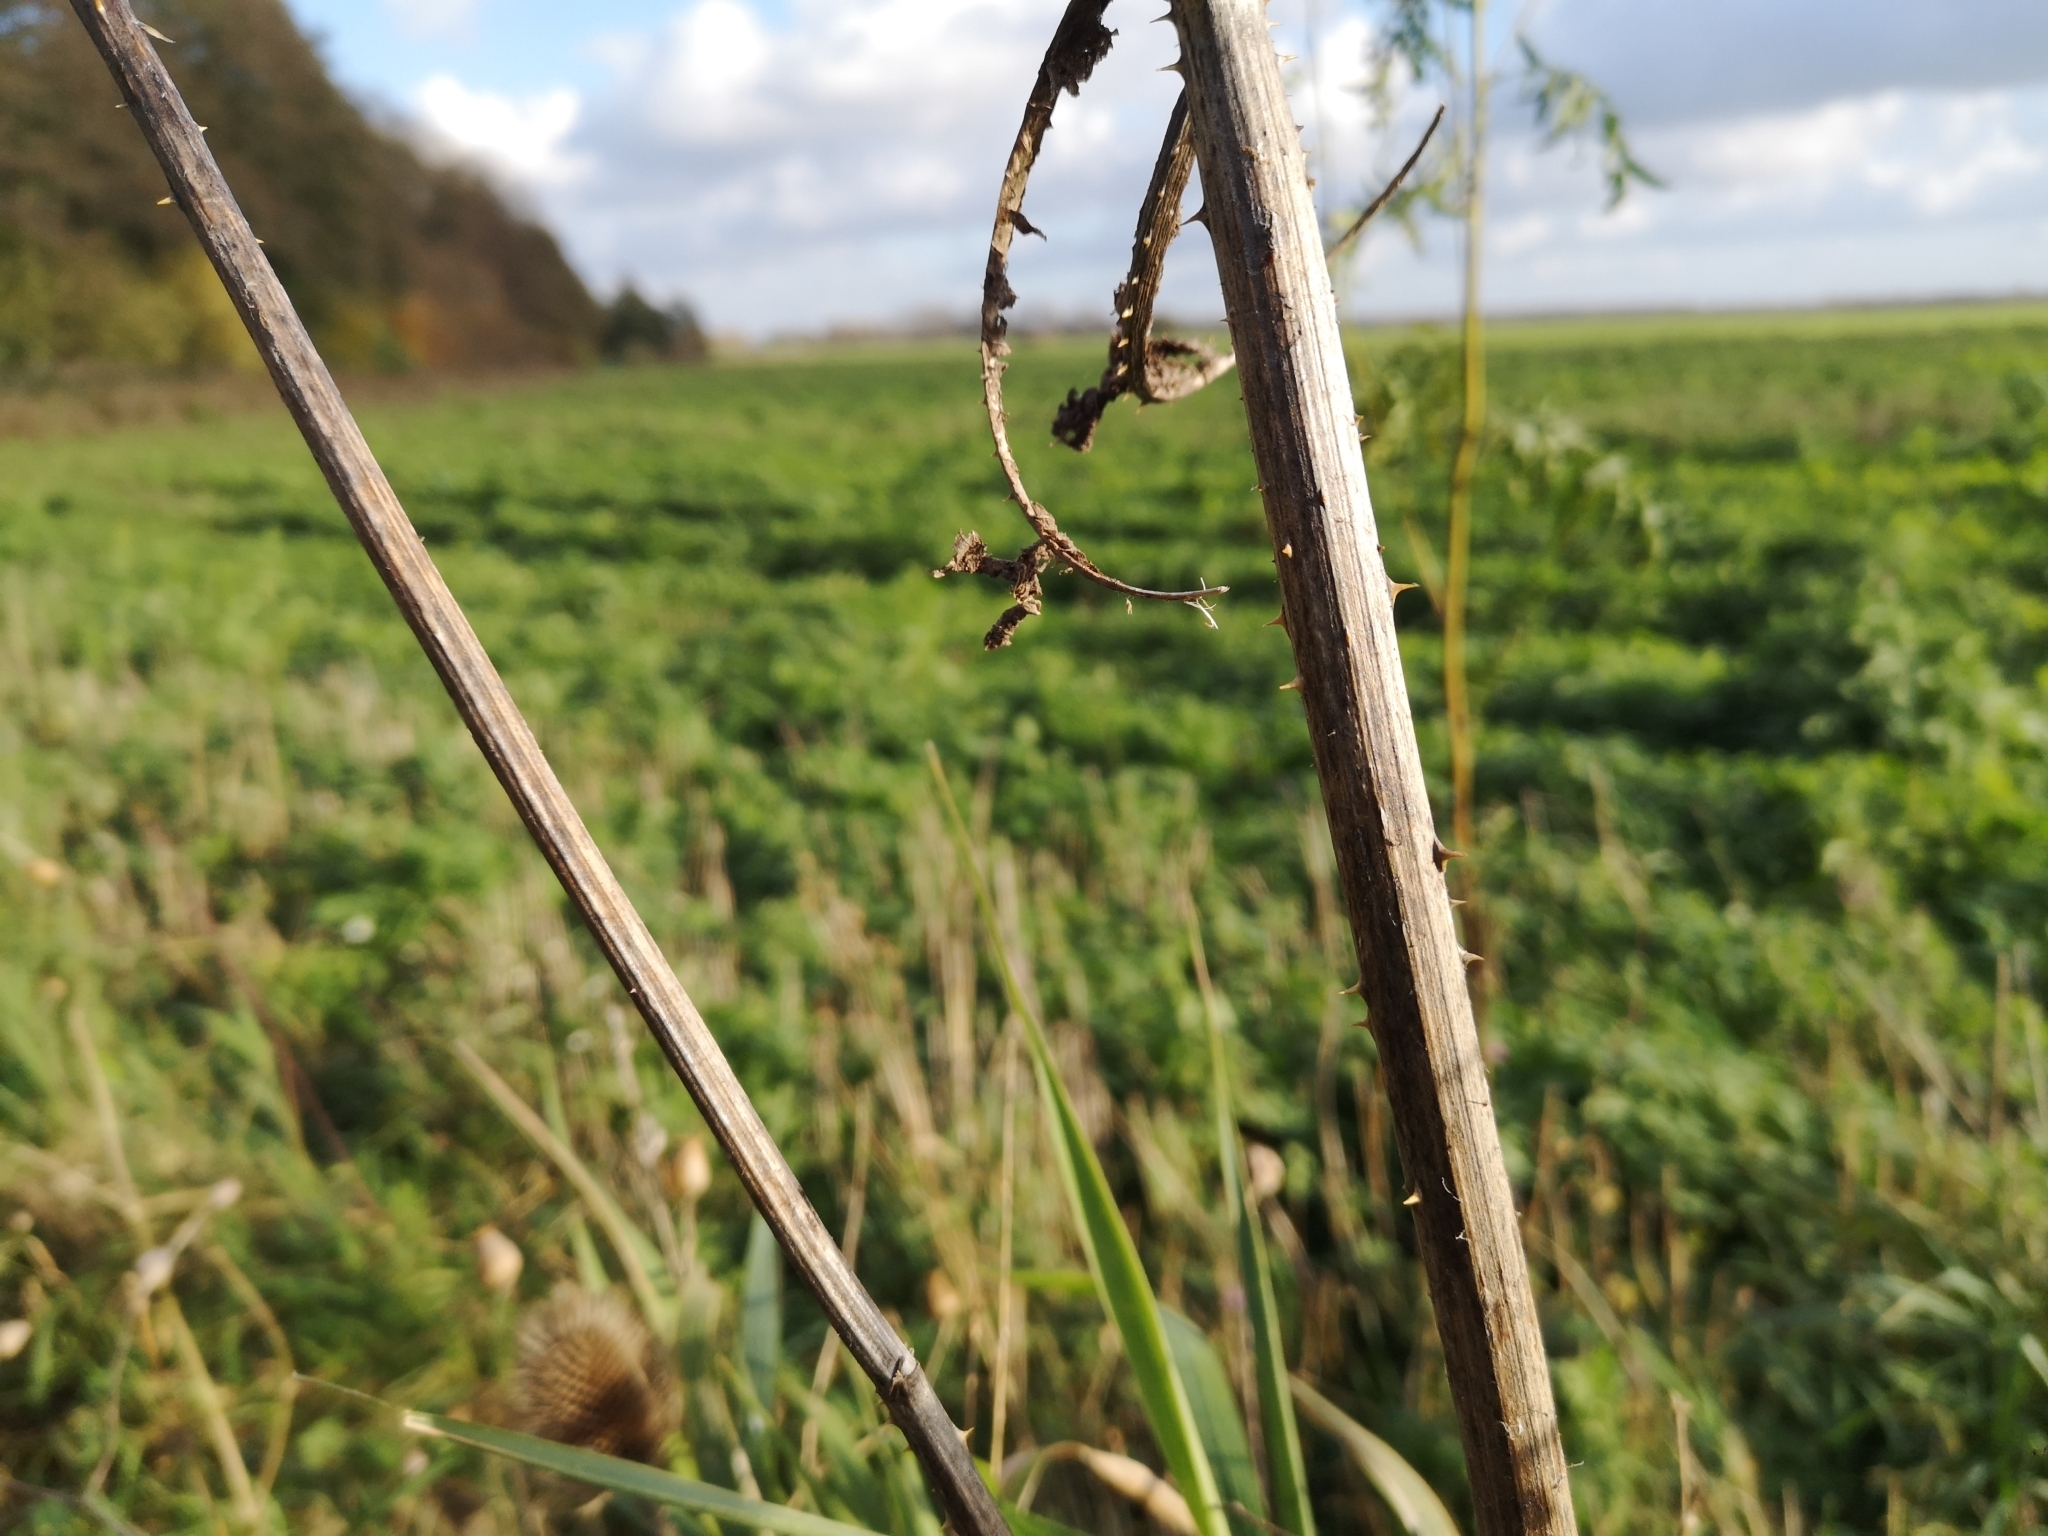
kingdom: Plantae
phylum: Tracheophyta
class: Magnoliopsida
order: Dipsacales
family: Caprifoliaceae
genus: Dipsacus
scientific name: Dipsacus fullonum
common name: Teasel
